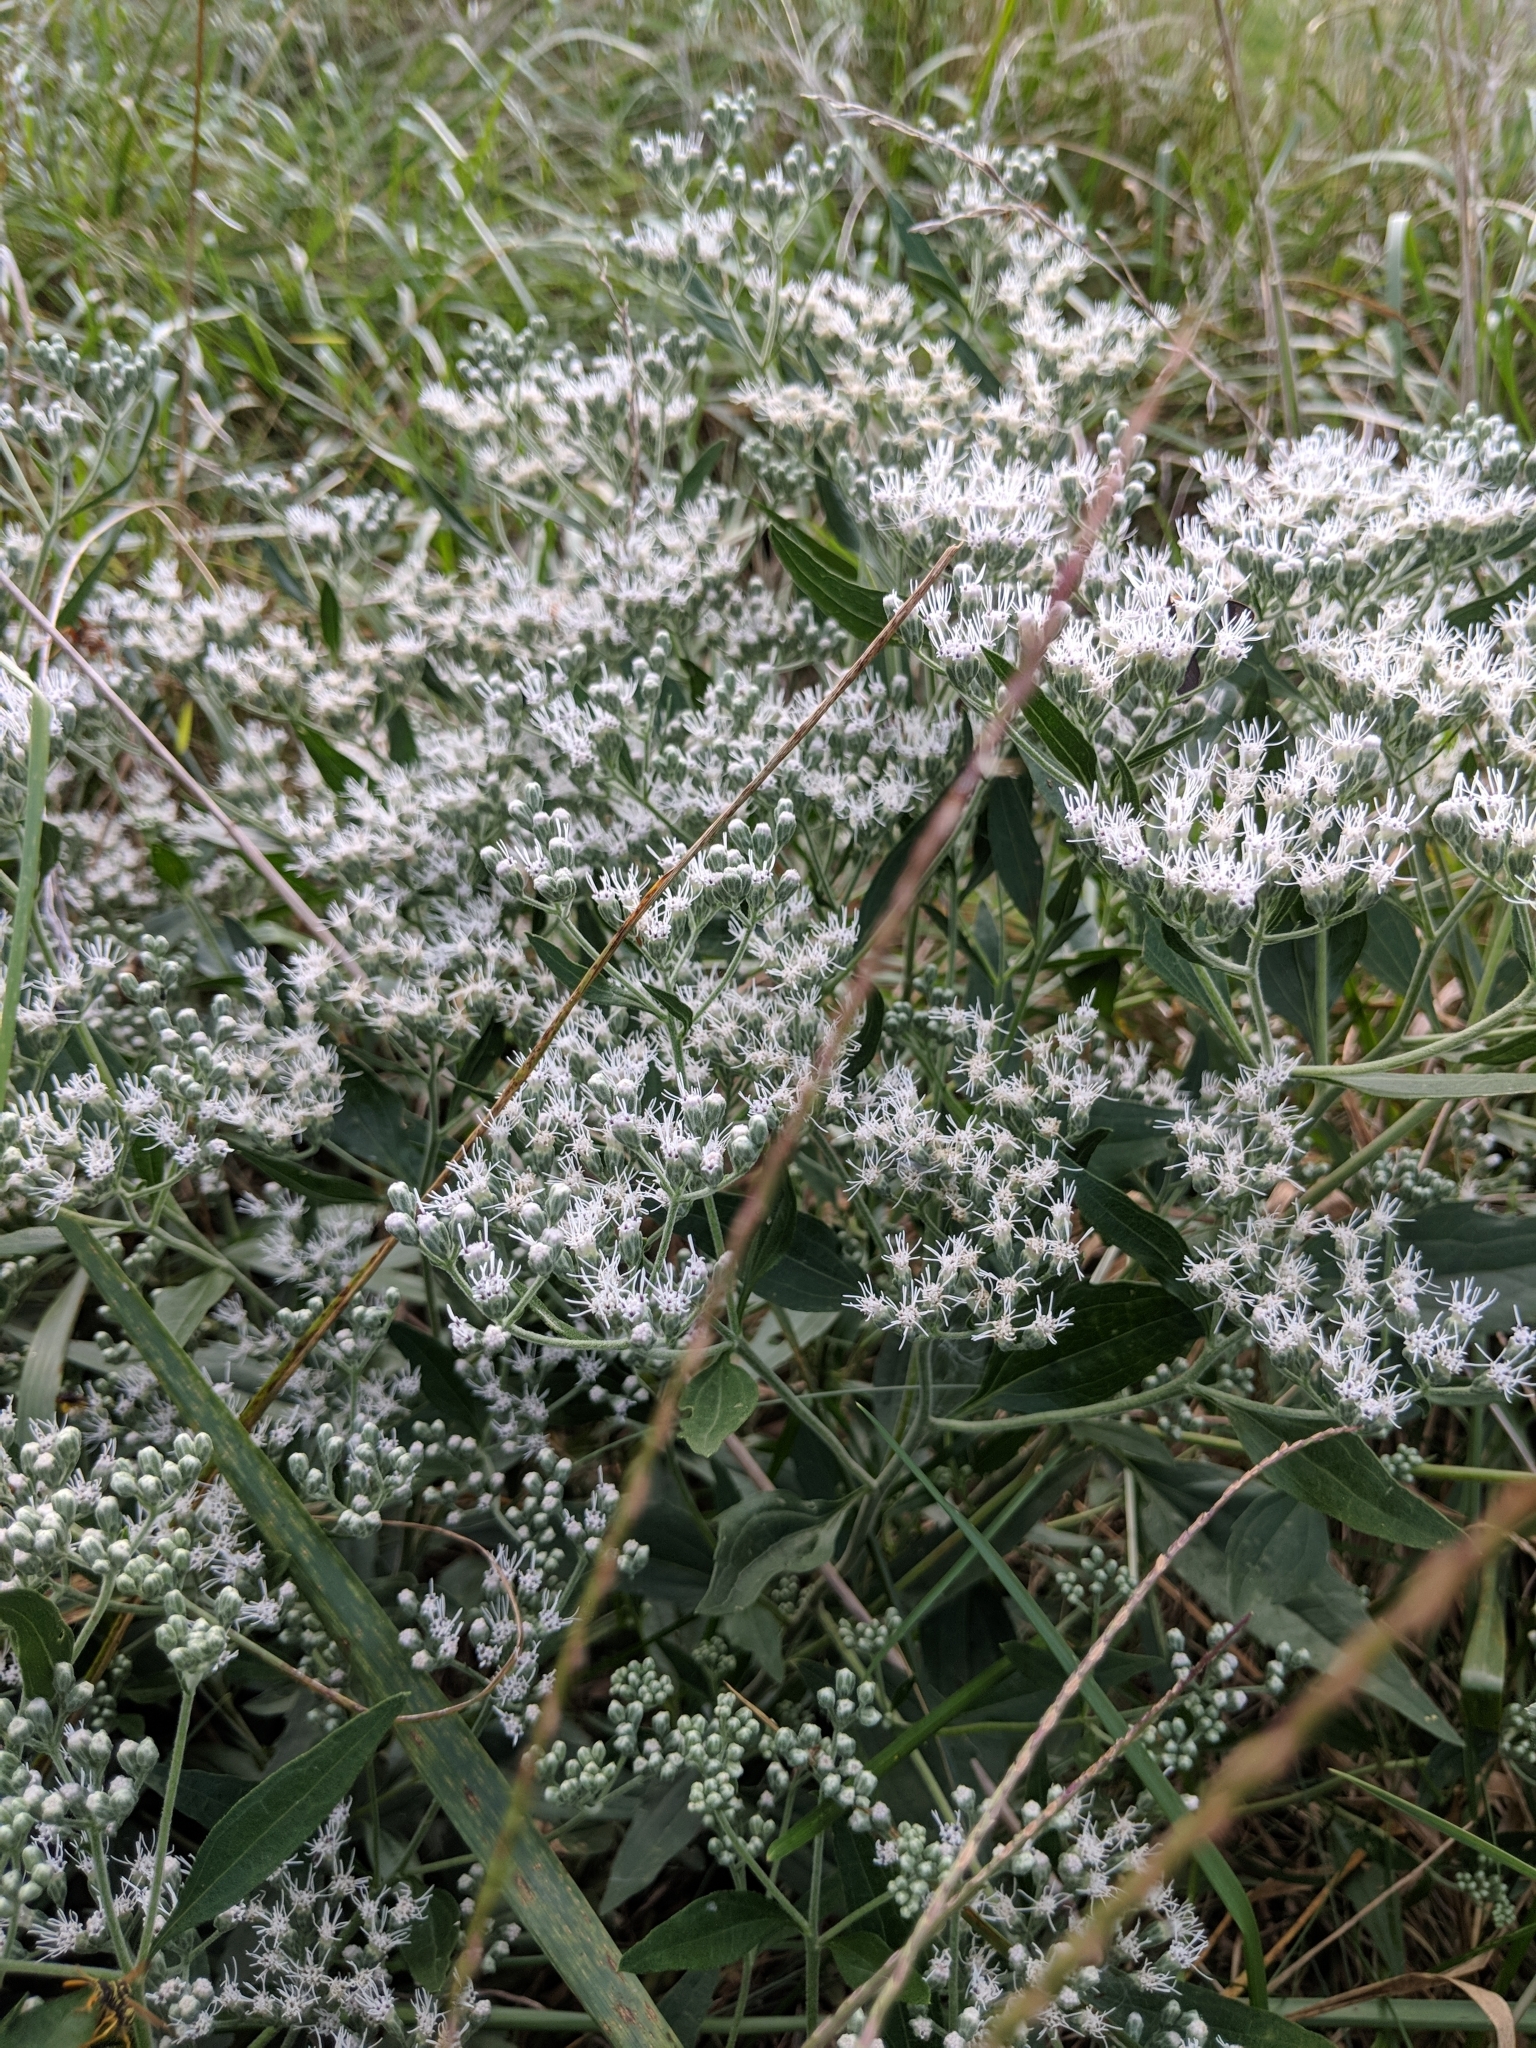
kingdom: Plantae
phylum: Tracheophyta
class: Magnoliopsida
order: Asterales
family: Asteraceae
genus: Eupatorium
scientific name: Eupatorium serotinum
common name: Late boneset
